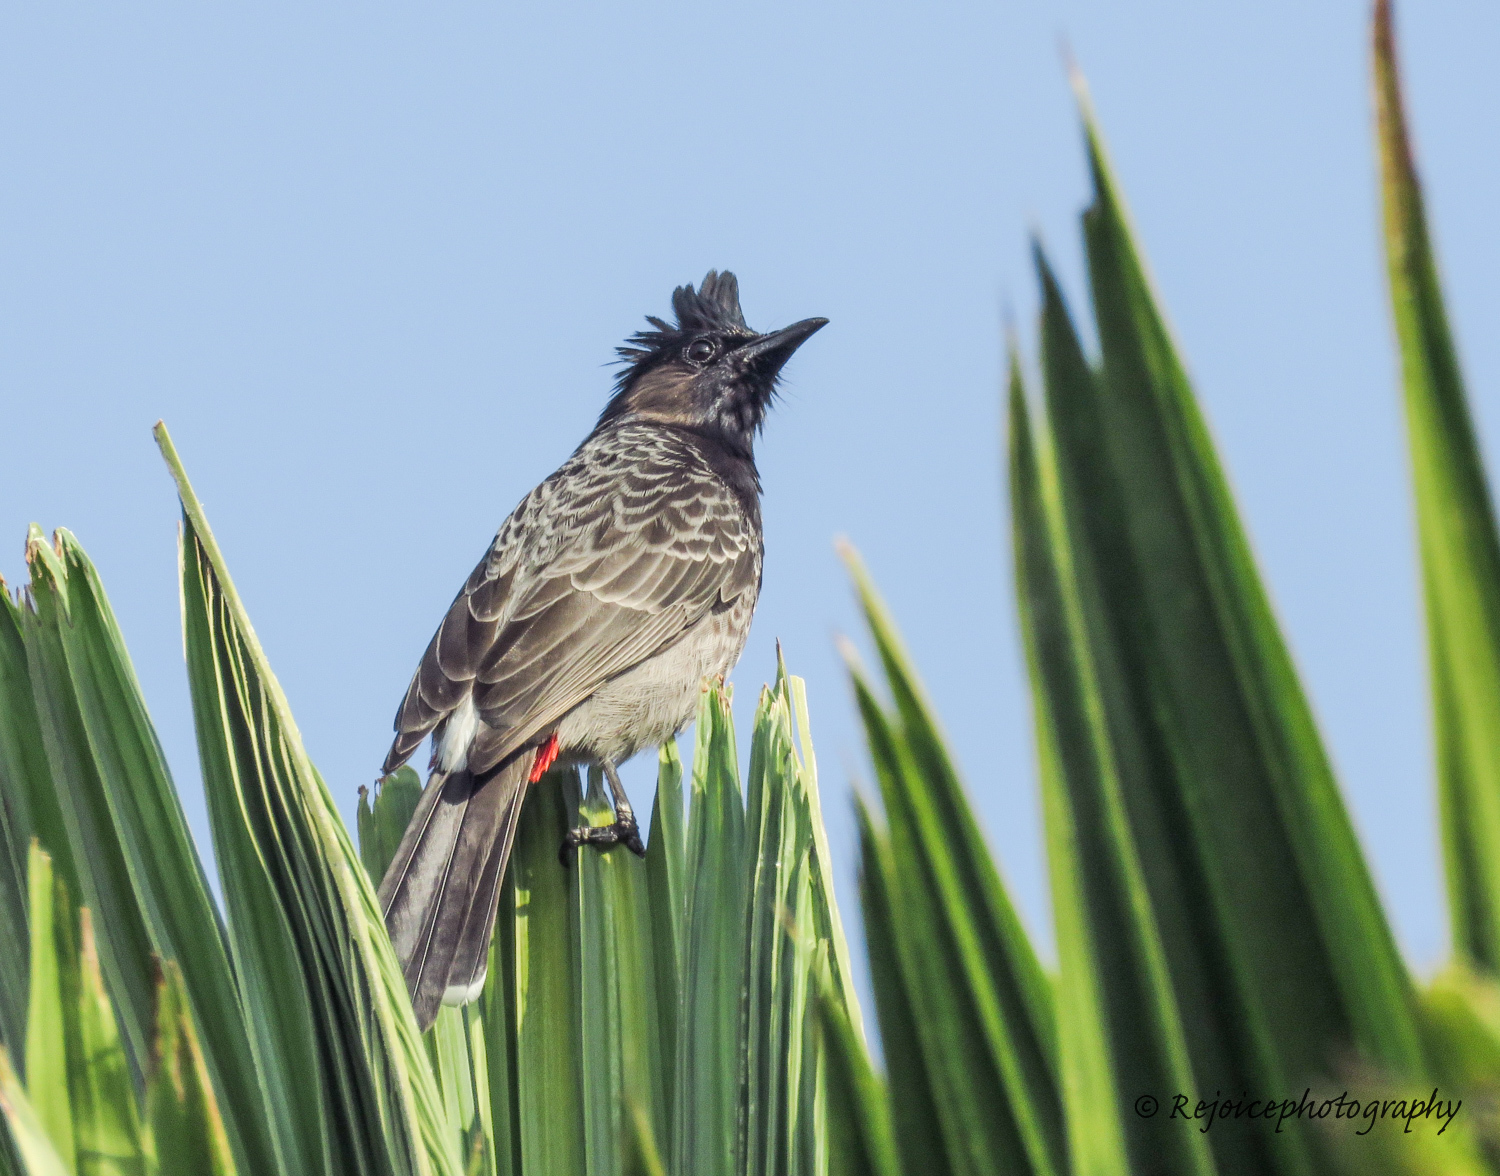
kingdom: Animalia
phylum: Chordata
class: Aves
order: Passeriformes
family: Pycnonotidae
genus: Pycnonotus
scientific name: Pycnonotus cafer
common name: Red-vented bulbul
